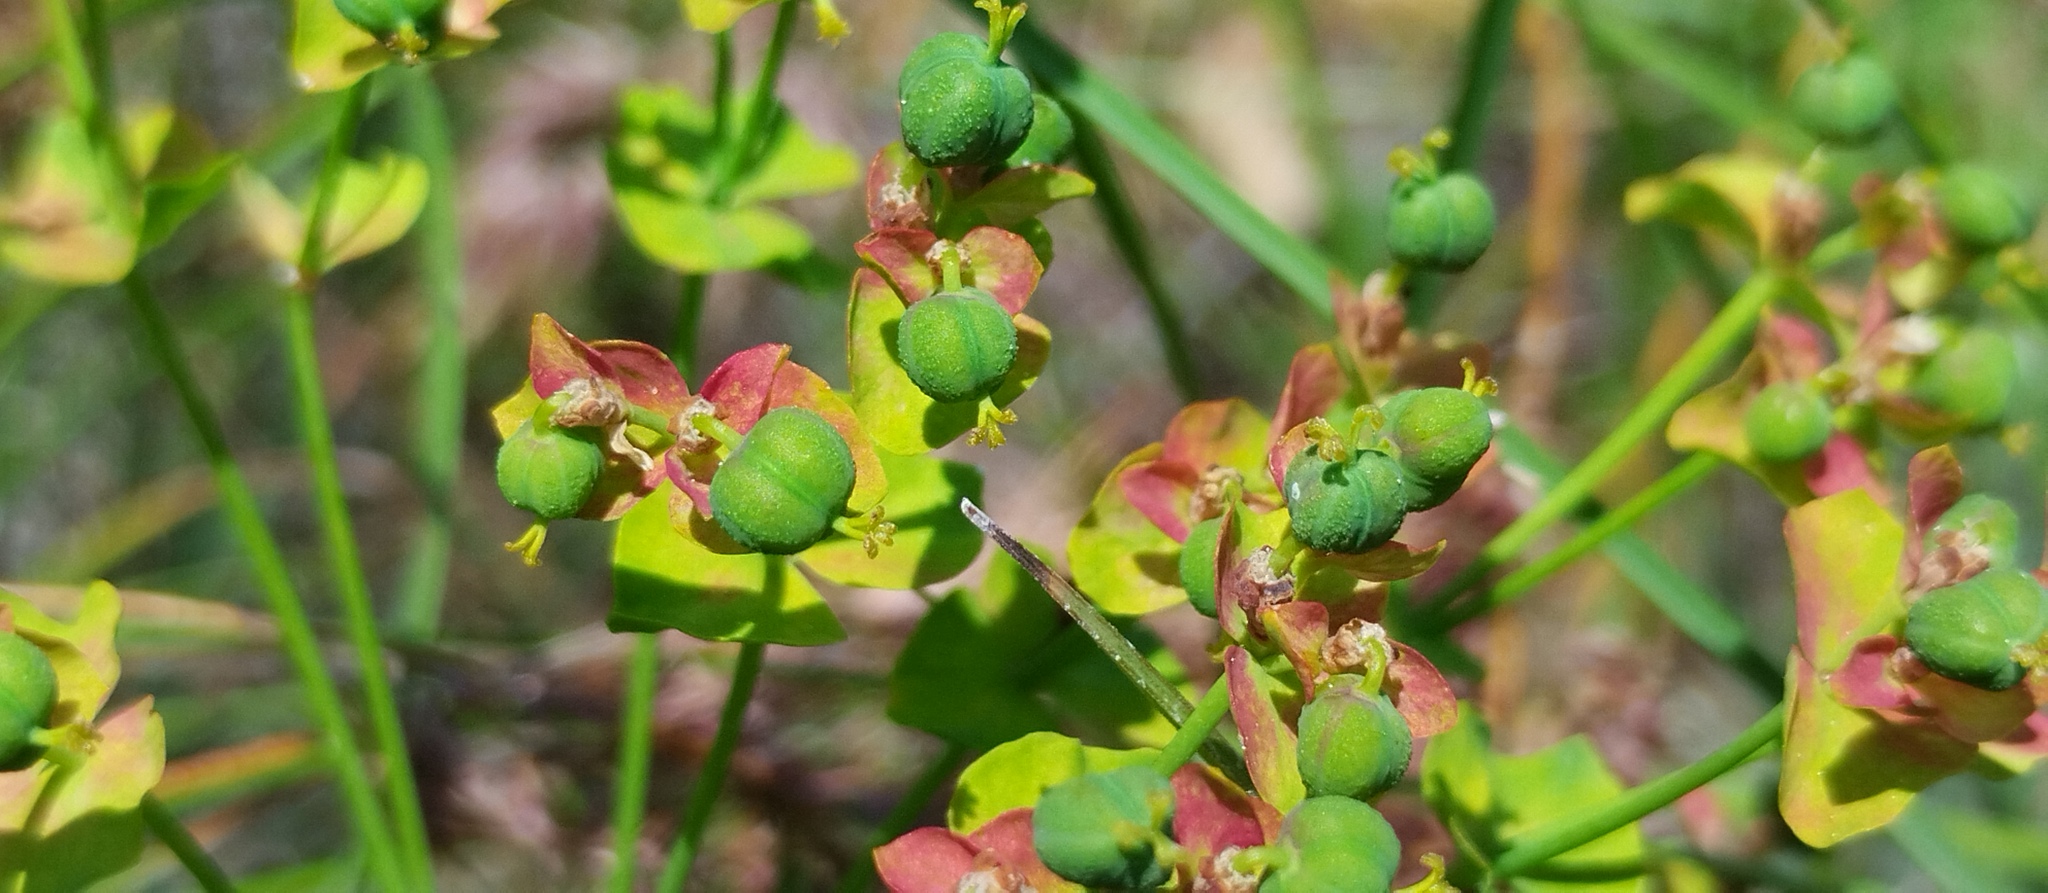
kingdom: Plantae
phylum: Tracheophyta
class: Magnoliopsida
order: Malpighiales
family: Euphorbiaceae
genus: Euphorbia
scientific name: Euphorbia cyparissias
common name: Cypress spurge
